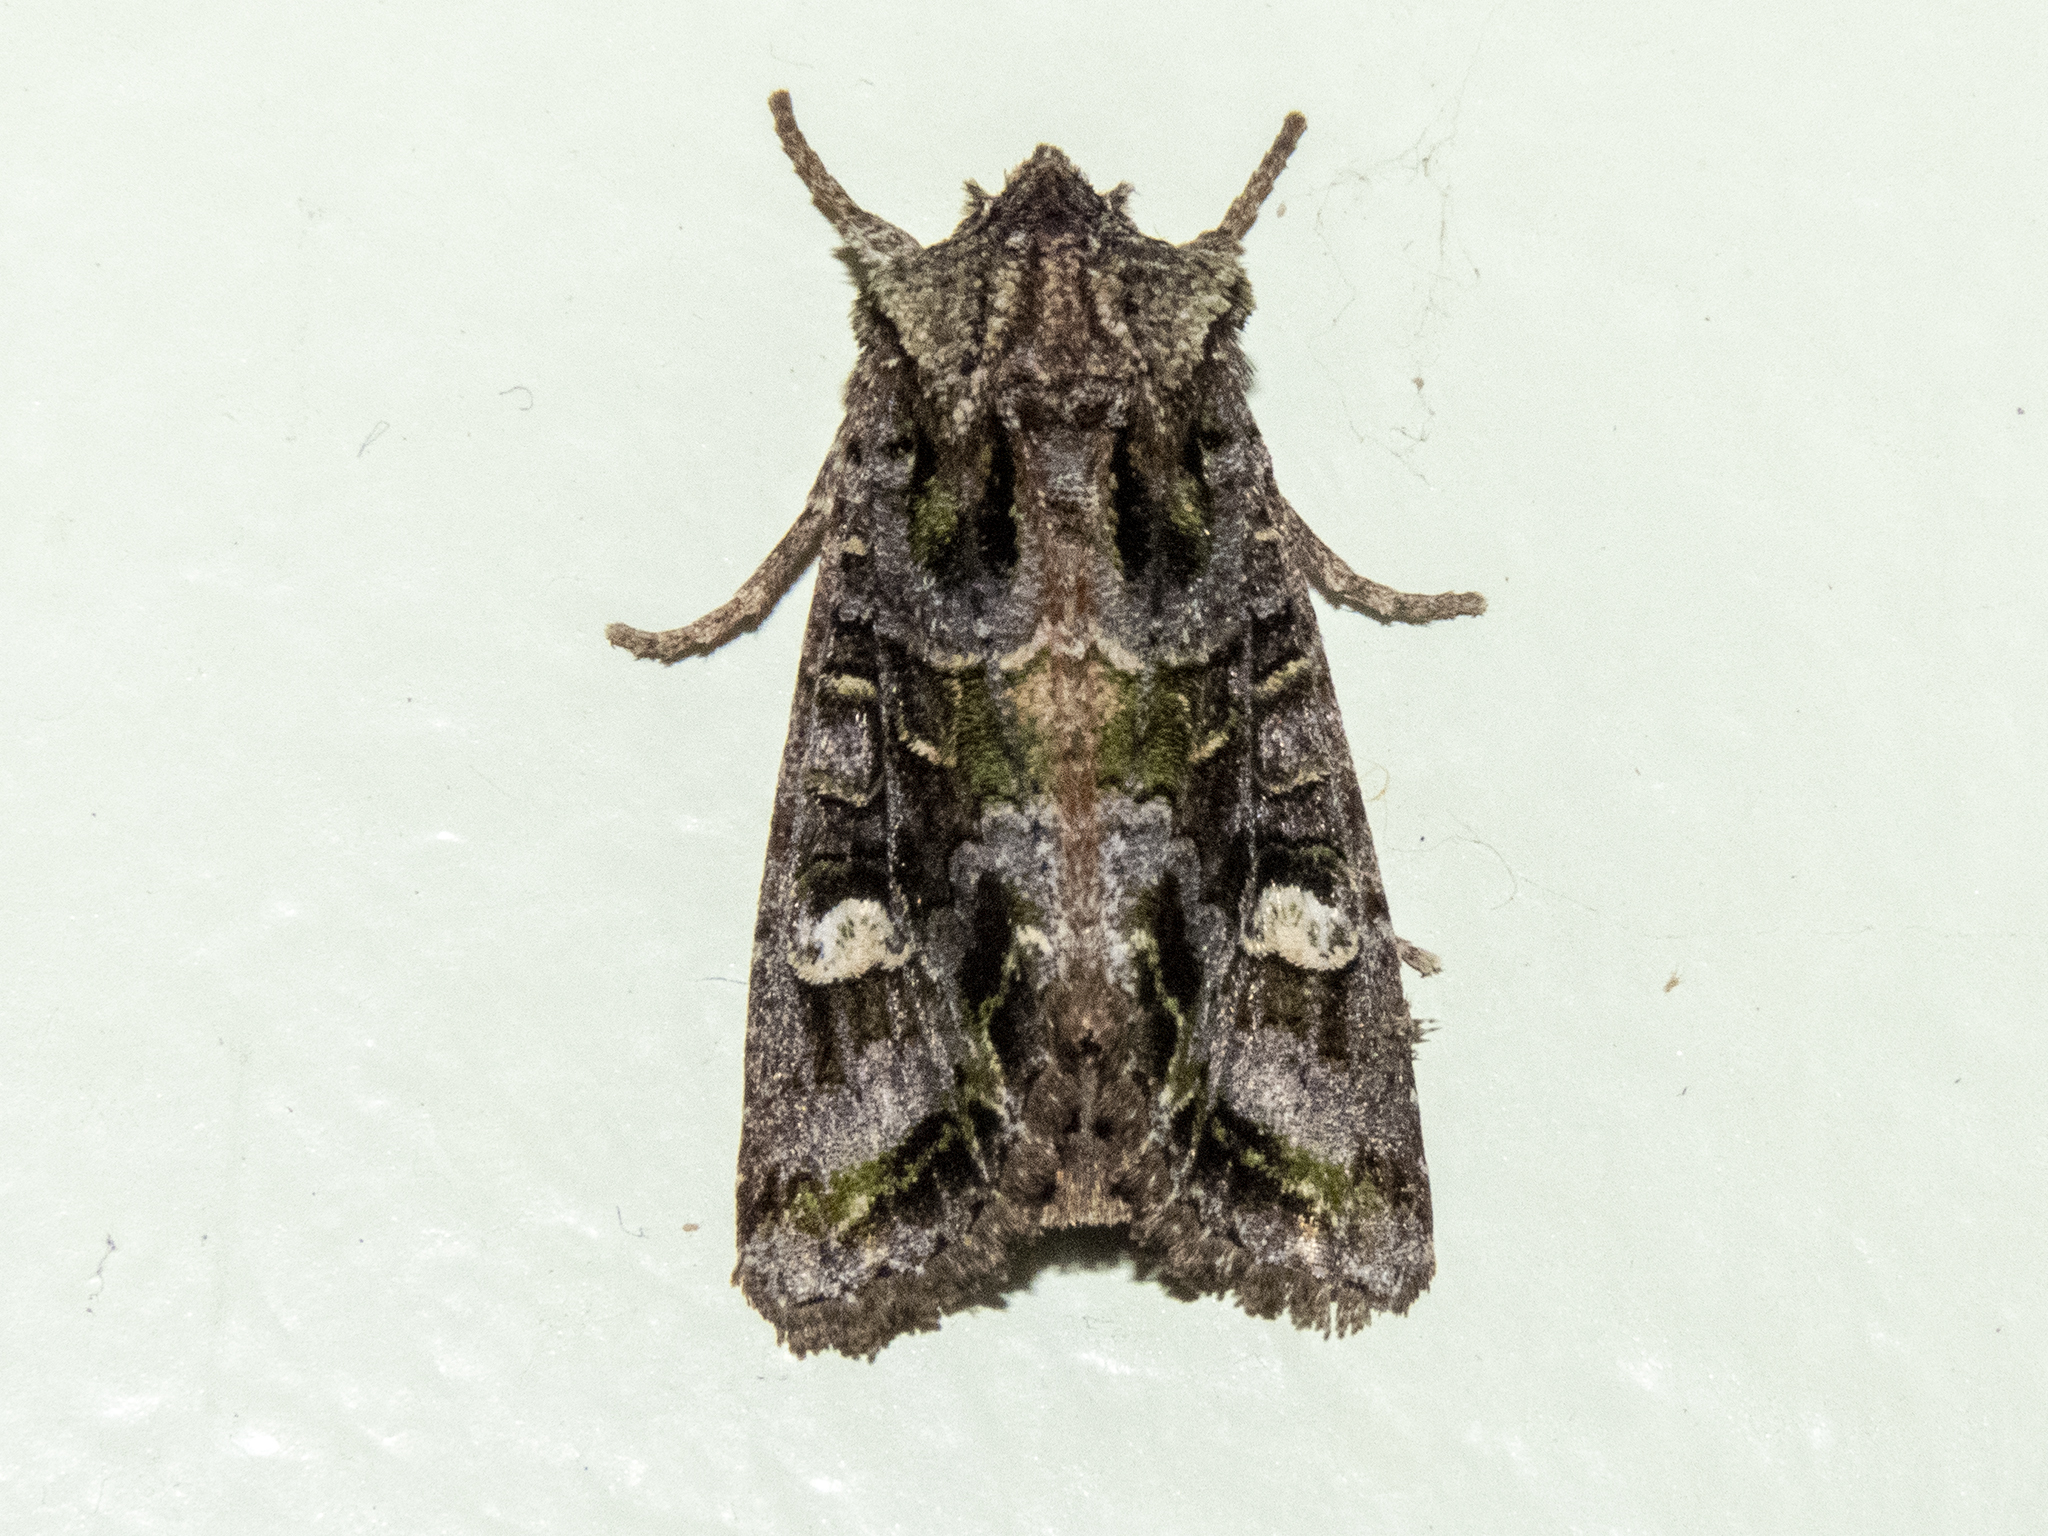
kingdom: Animalia
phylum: Arthropoda
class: Insecta
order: Lepidoptera
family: Noctuidae
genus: Ichneutica
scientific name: Ichneutica insignis
